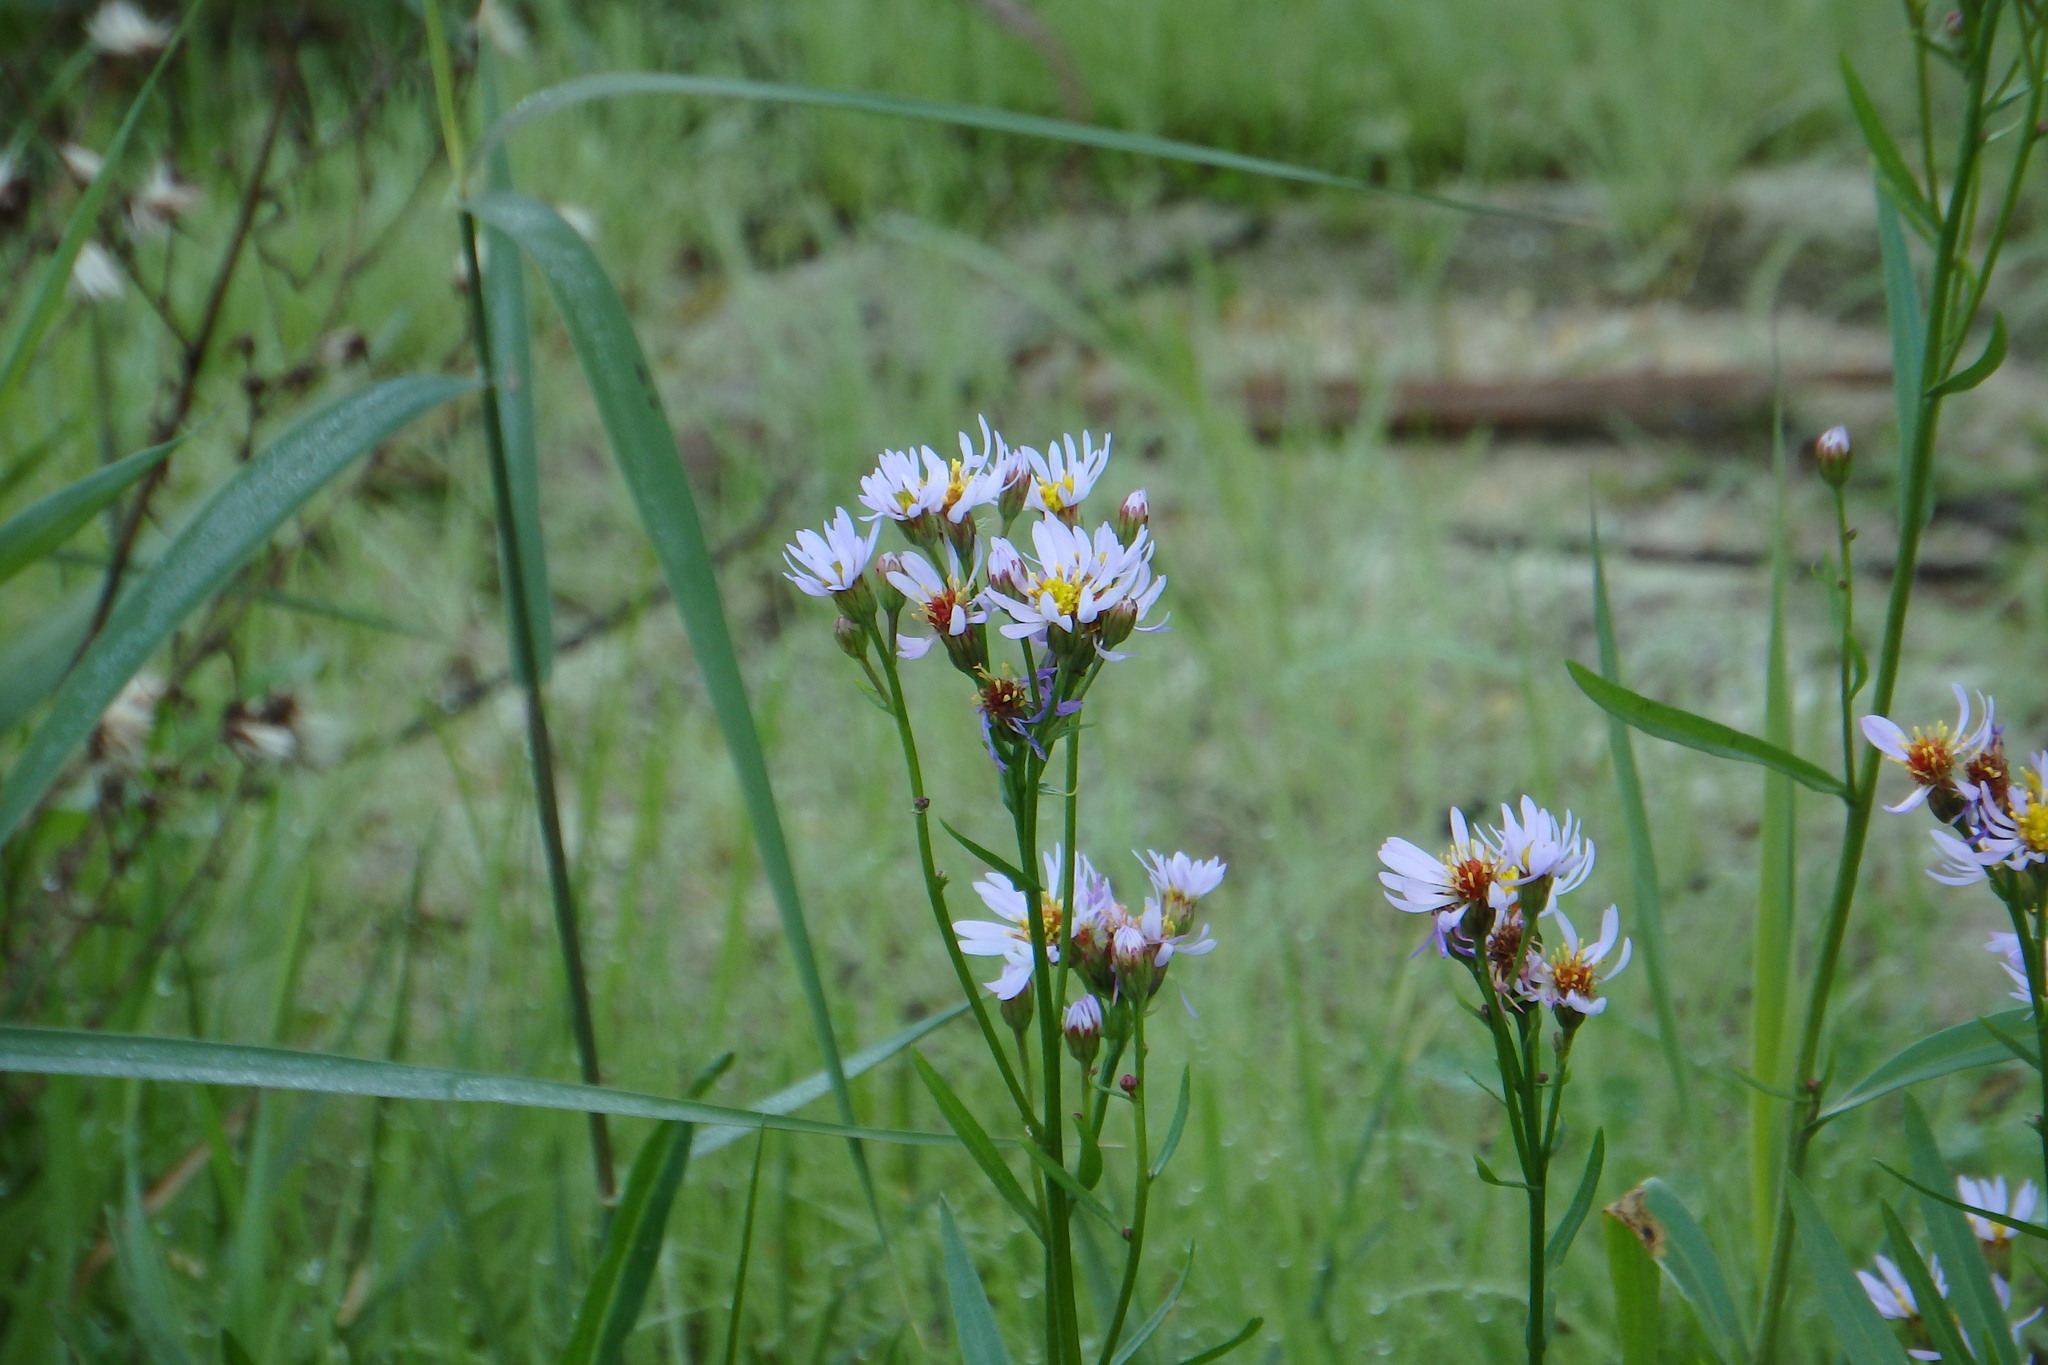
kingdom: Plantae
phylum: Tracheophyta
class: Magnoliopsida
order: Asterales
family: Asteraceae
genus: Tripolium
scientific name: Tripolium pannonicum
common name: Sea aster
